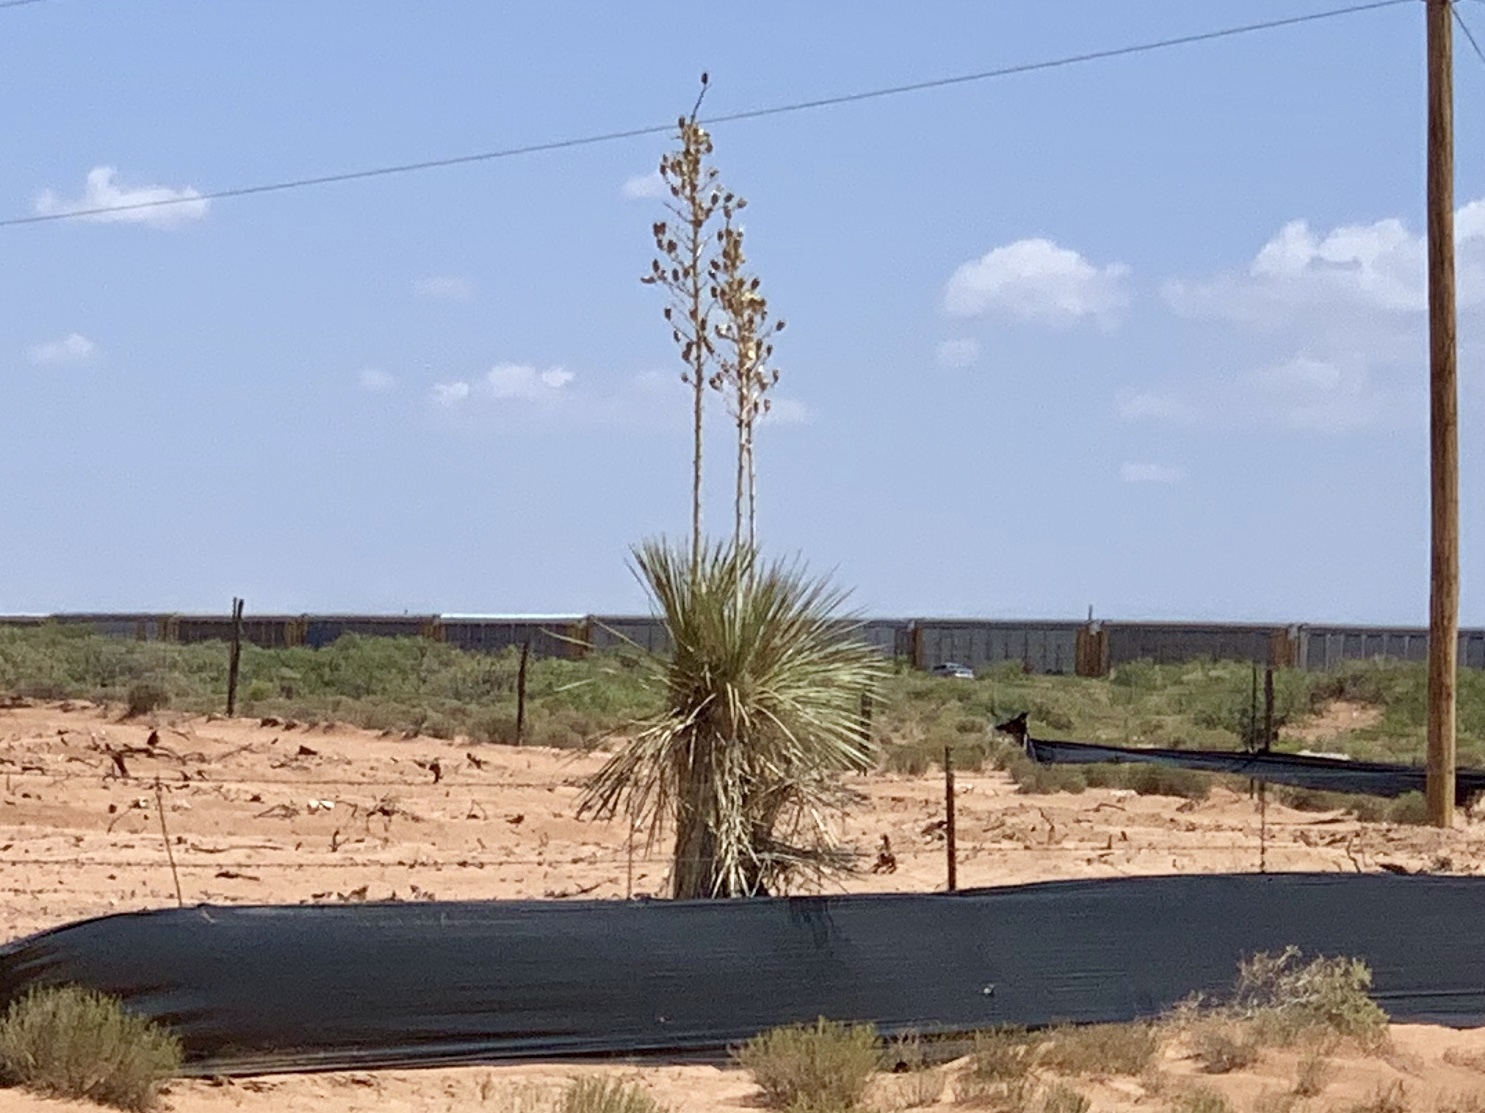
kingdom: Plantae
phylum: Tracheophyta
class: Liliopsida
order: Asparagales
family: Asparagaceae
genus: Yucca
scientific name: Yucca elata
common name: Palmella
